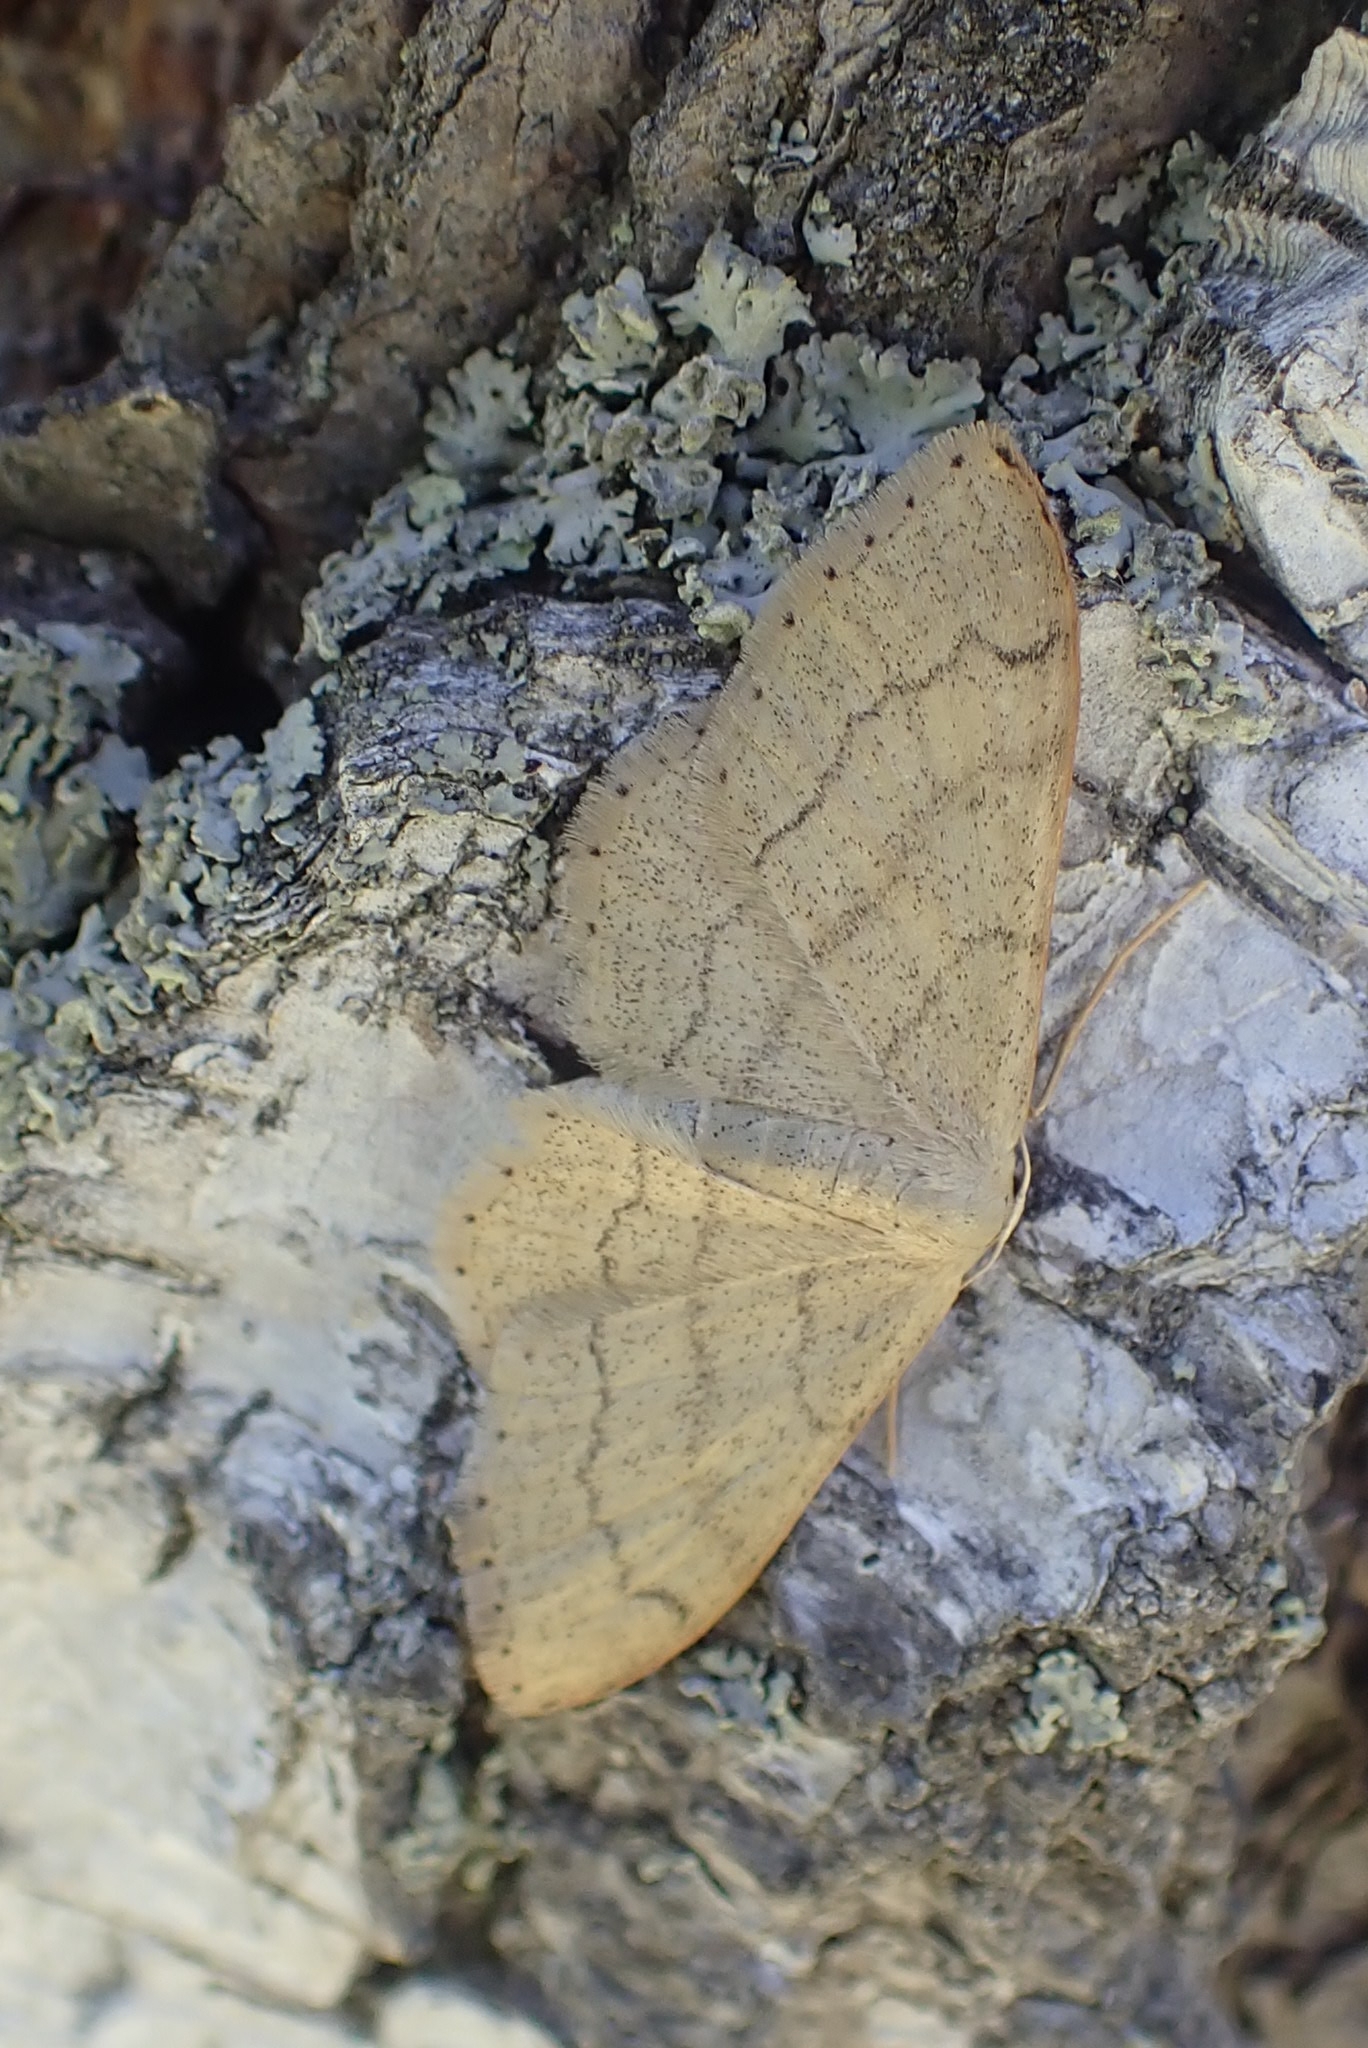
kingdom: Animalia
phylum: Arthropoda
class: Insecta
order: Lepidoptera
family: Geometridae
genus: Idaea
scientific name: Idaea aversata
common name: Riband wave
